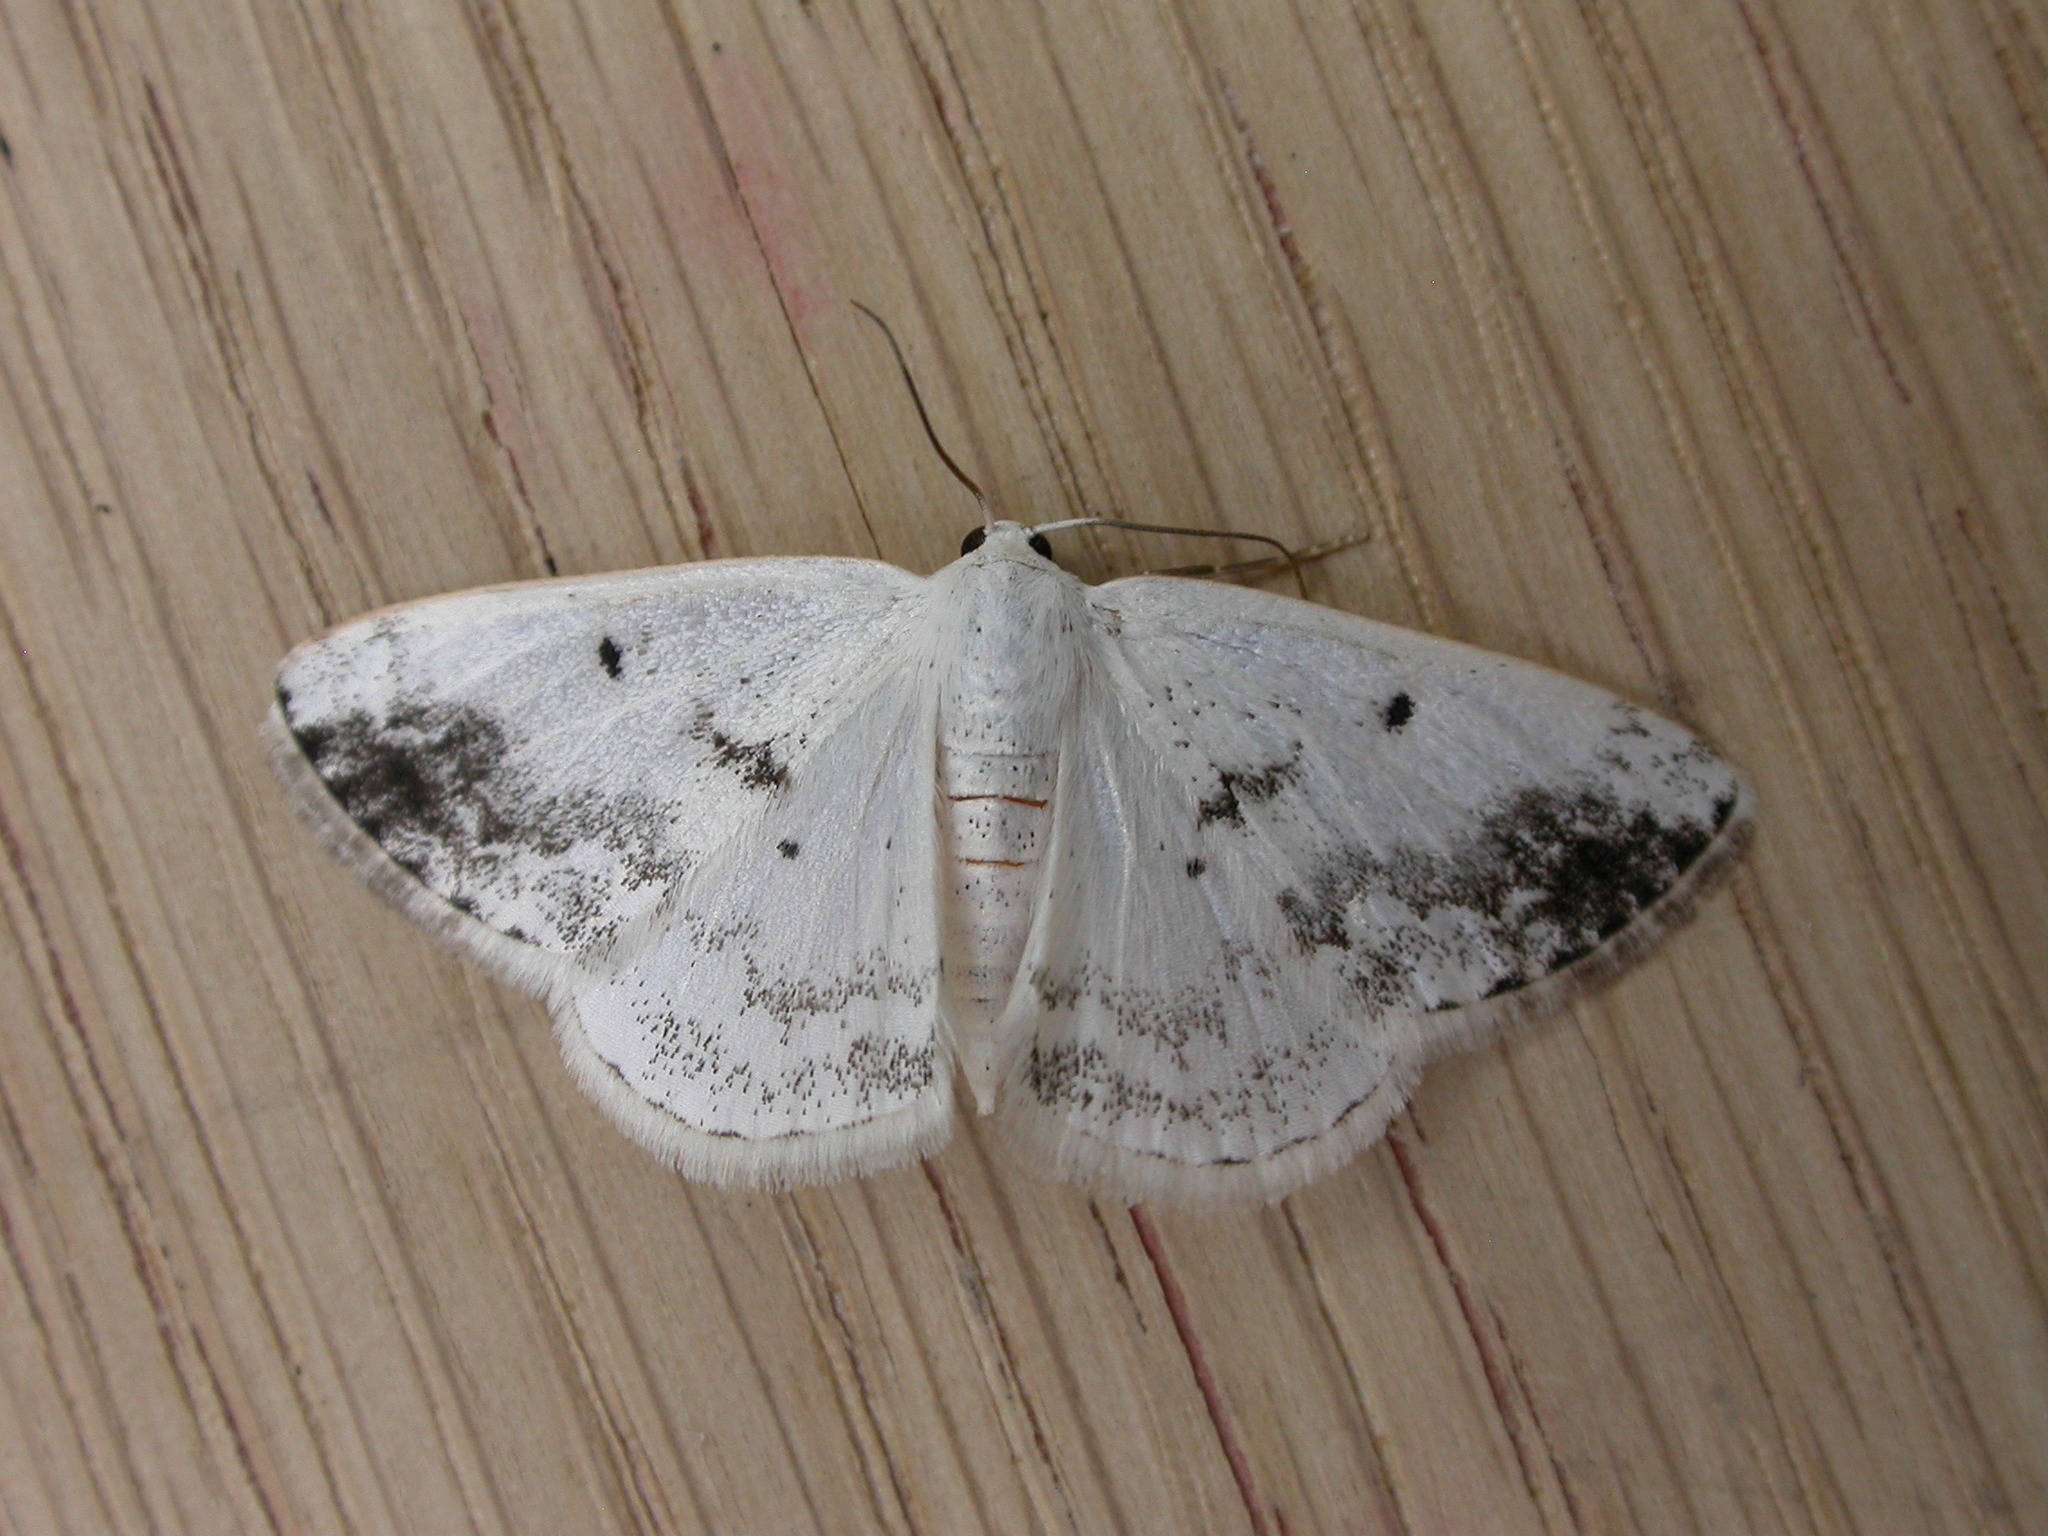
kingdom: Animalia
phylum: Arthropoda
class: Insecta
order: Lepidoptera
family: Geometridae
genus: Lomographa
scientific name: Lomographa temerata
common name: Clouded silver
